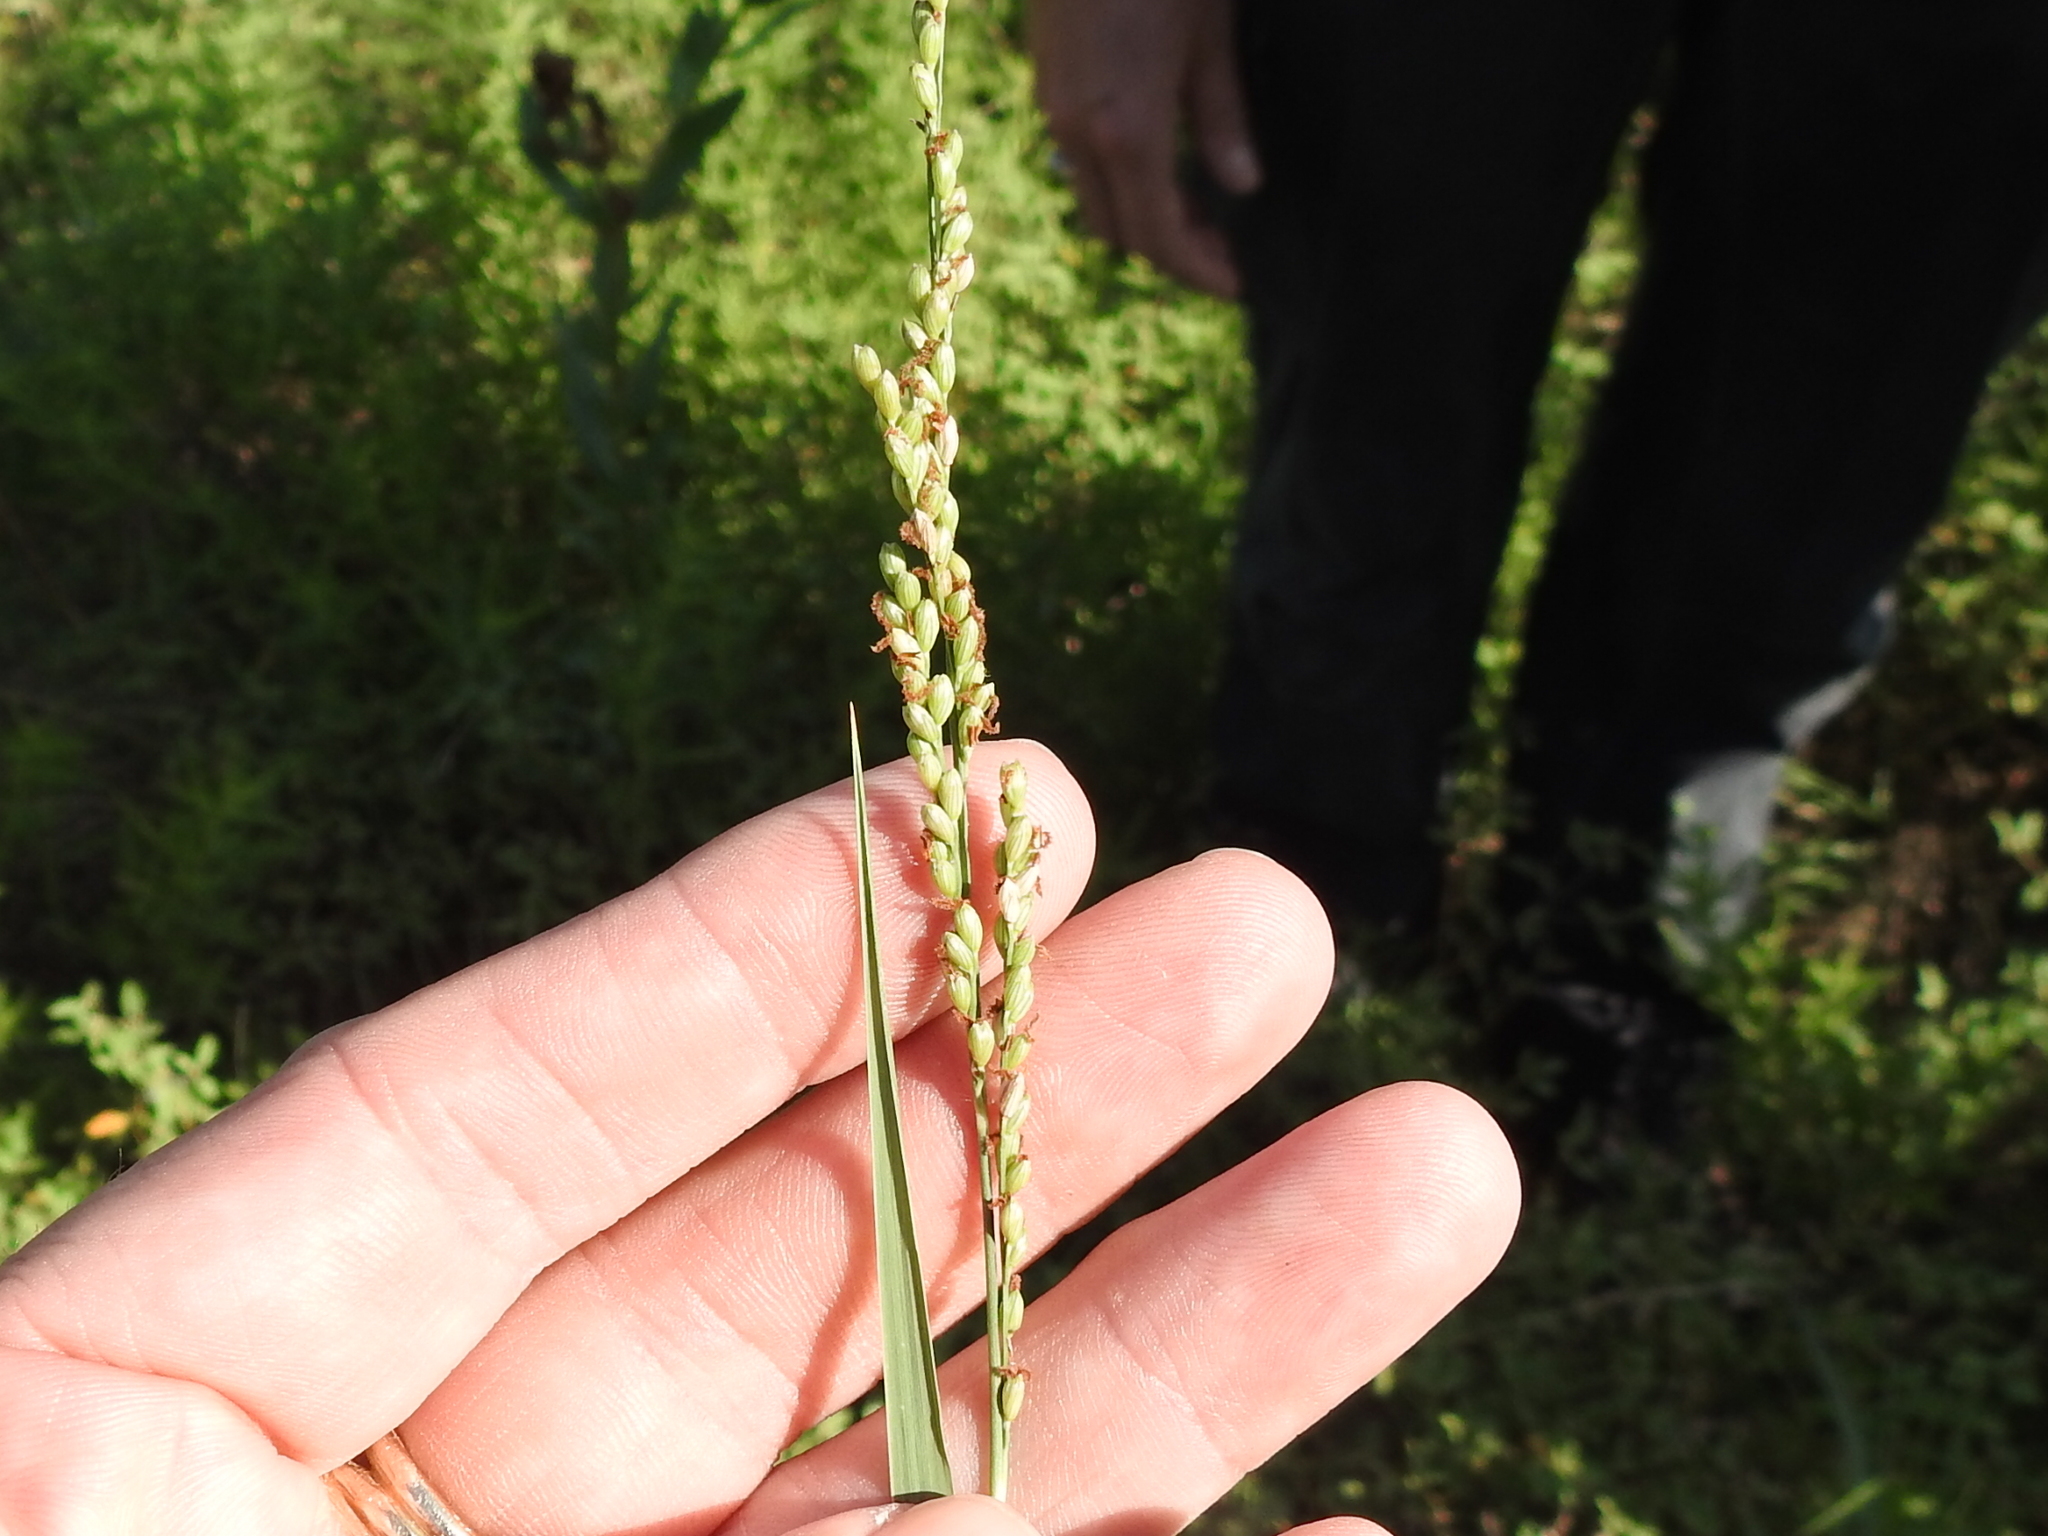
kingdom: Plantae
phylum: Tracheophyta
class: Liliopsida
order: Poales
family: Poaceae
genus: Hopia
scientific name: Hopia obtusa
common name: Vine-mesquite
